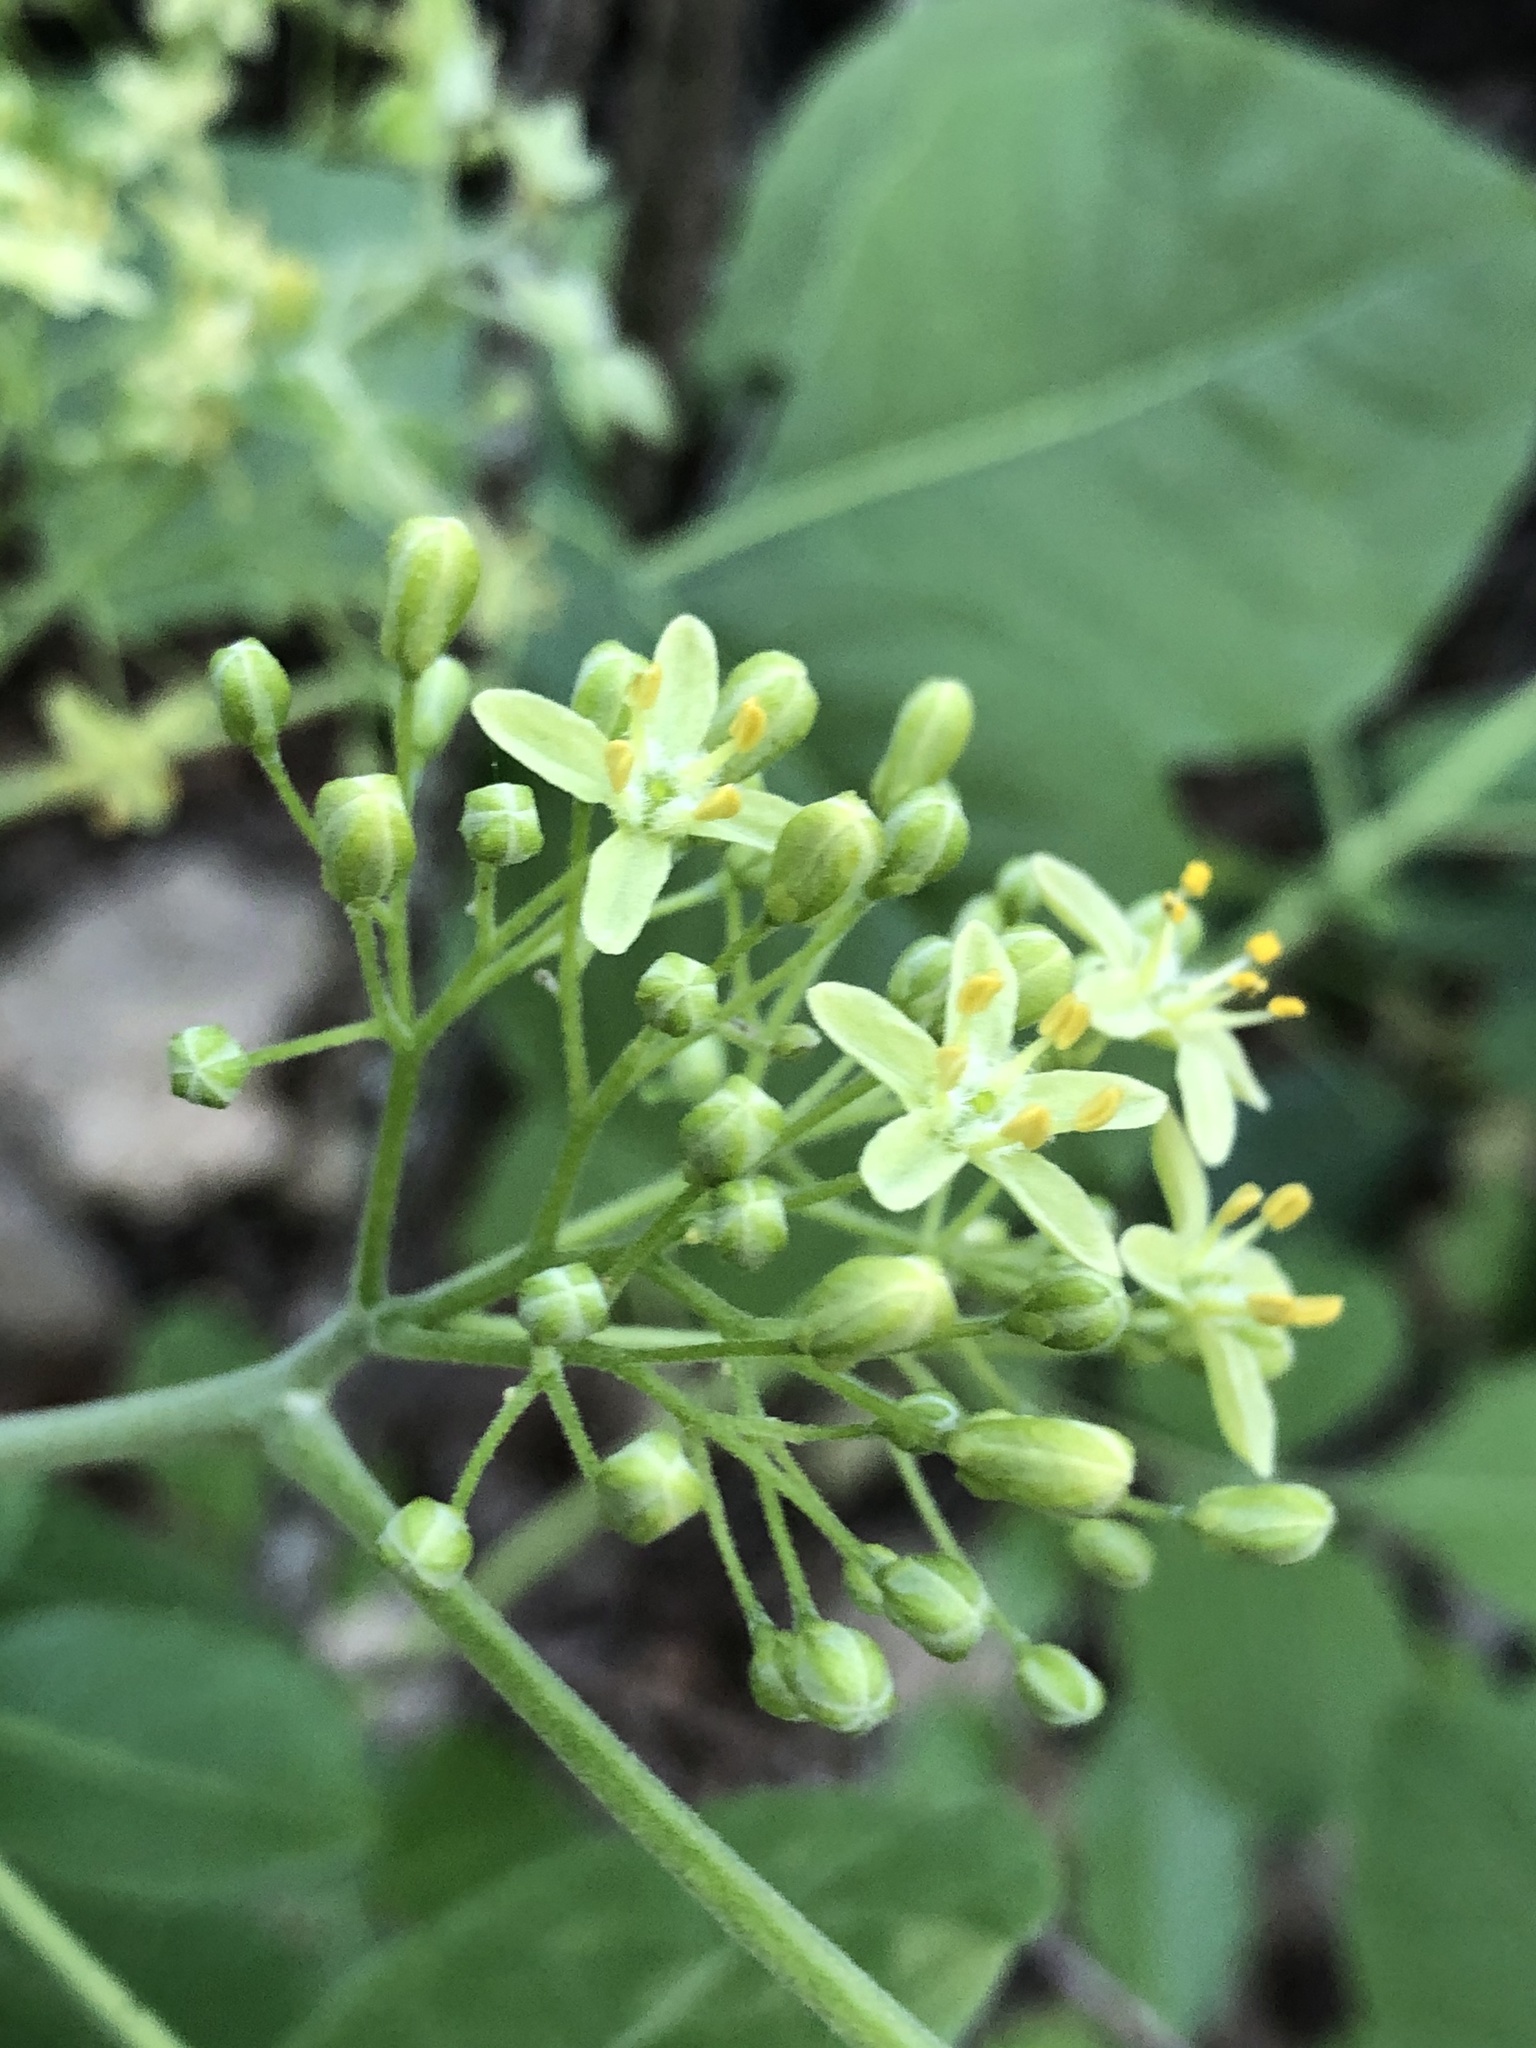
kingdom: Plantae
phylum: Tracheophyta
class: Magnoliopsida
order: Sapindales
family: Rutaceae
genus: Ptelea
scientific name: Ptelea trifoliata
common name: Common hop-tree
